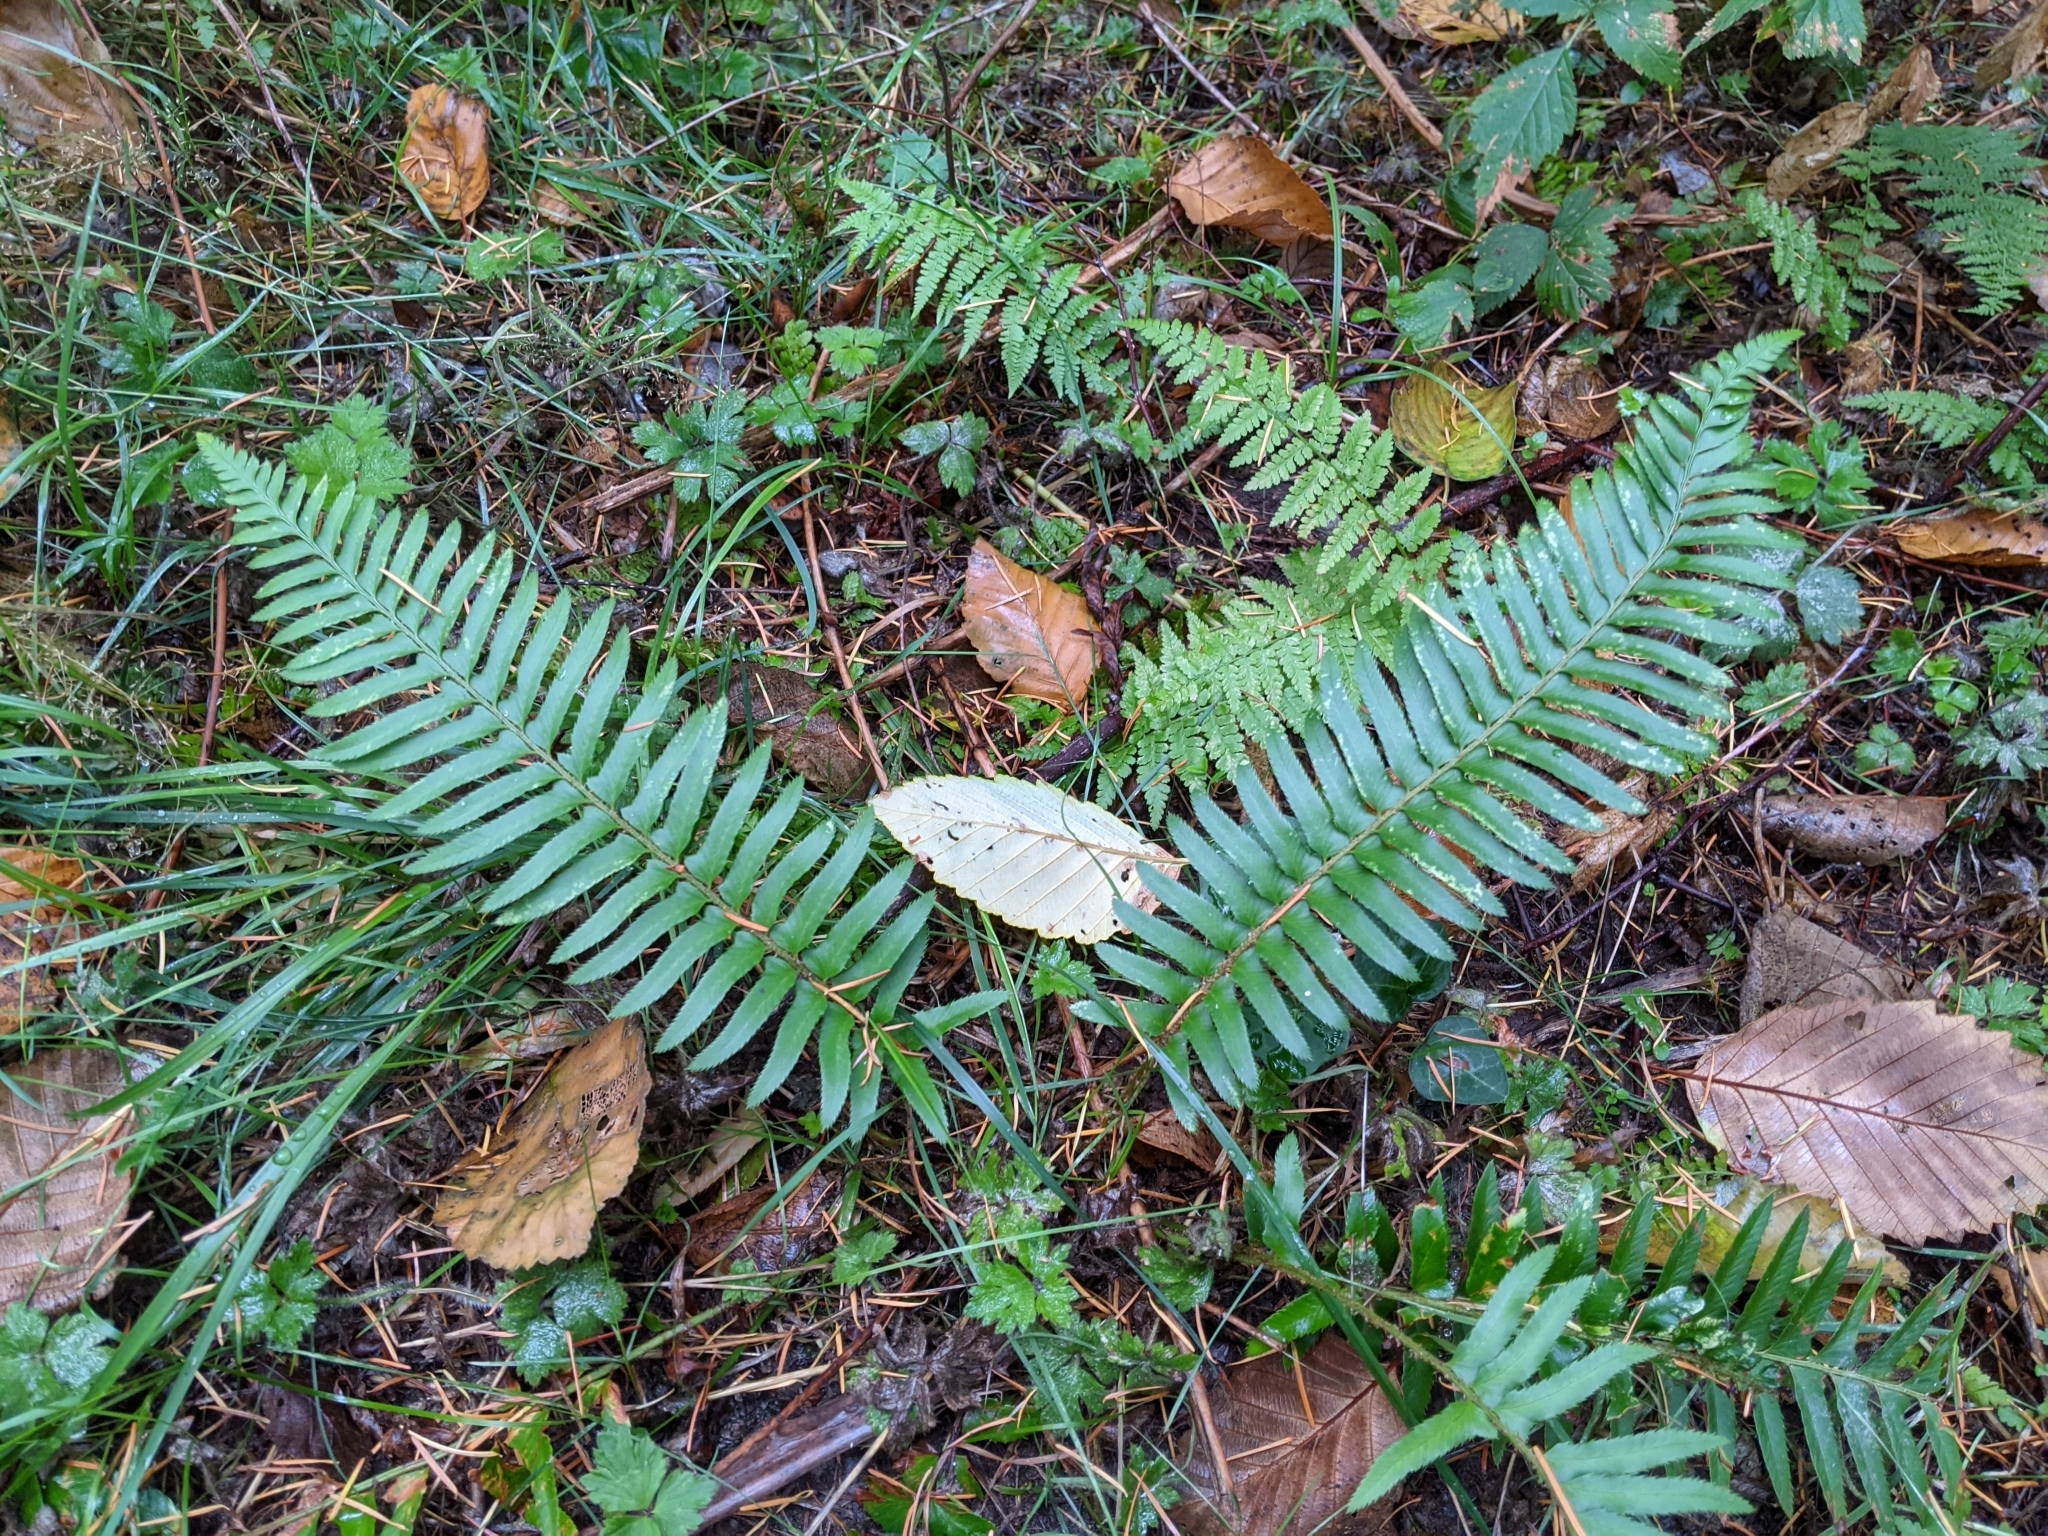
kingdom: Plantae
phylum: Tracheophyta
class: Polypodiopsida
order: Polypodiales
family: Dryopteridaceae
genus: Polystichum
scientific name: Polystichum munitum
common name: Western sword-fern
